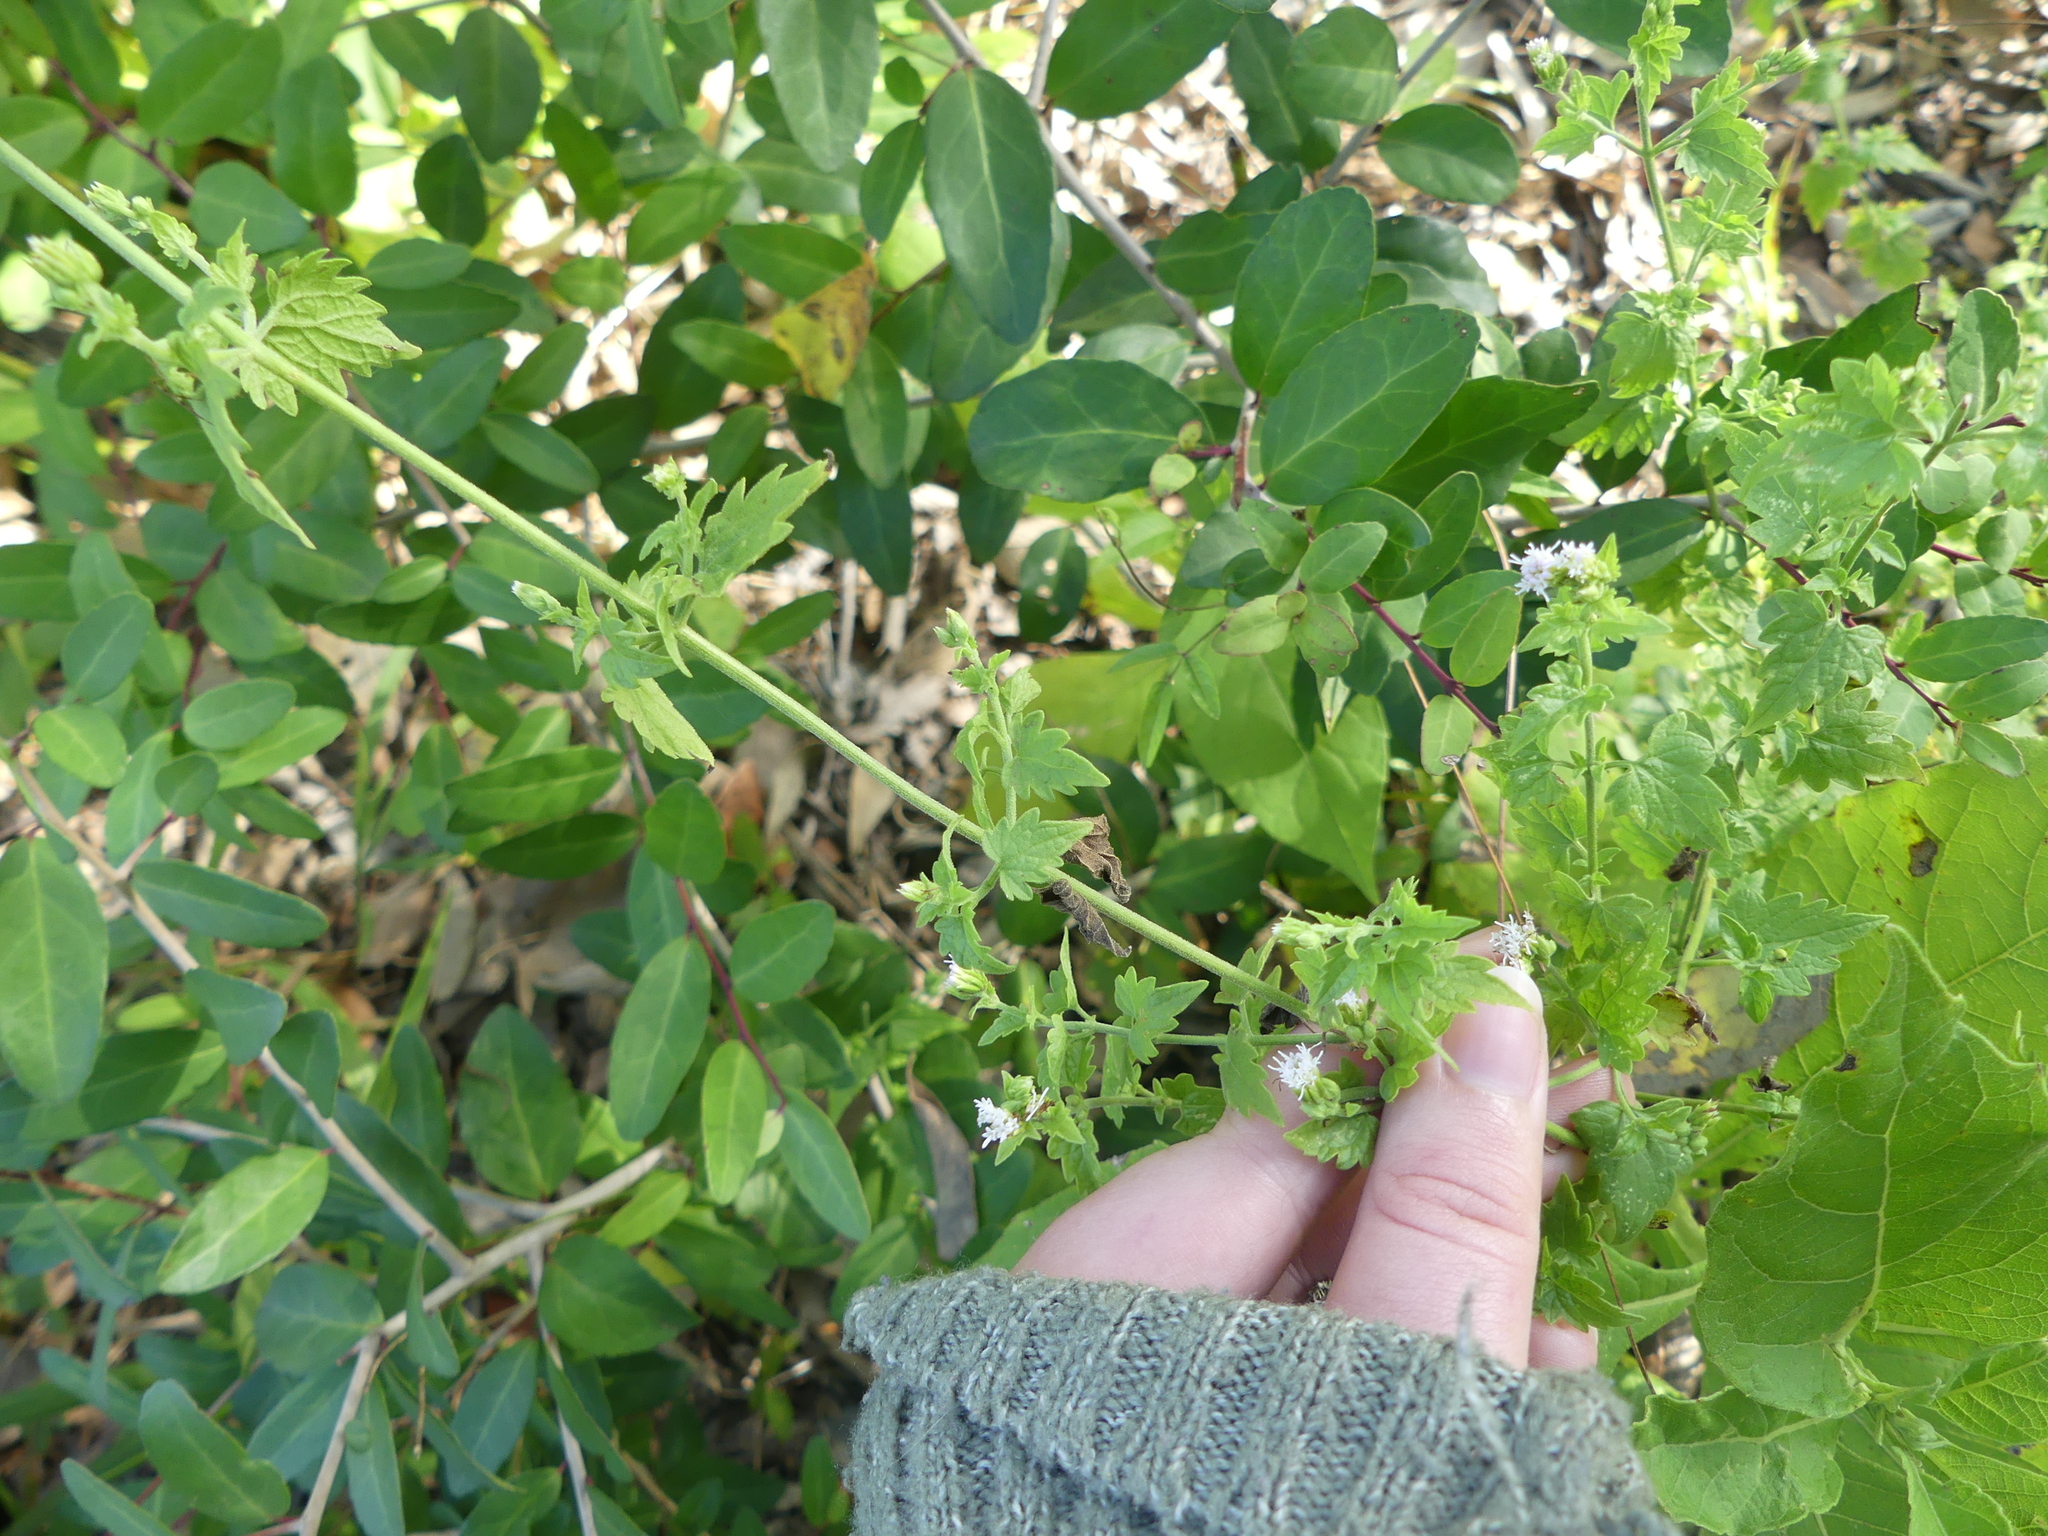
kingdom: Plantae
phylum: Tracheophyta
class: Magnoliopsida
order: Asterales
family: Asteraceae
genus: Fleischmannia
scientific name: Fleischmannia incarnata
